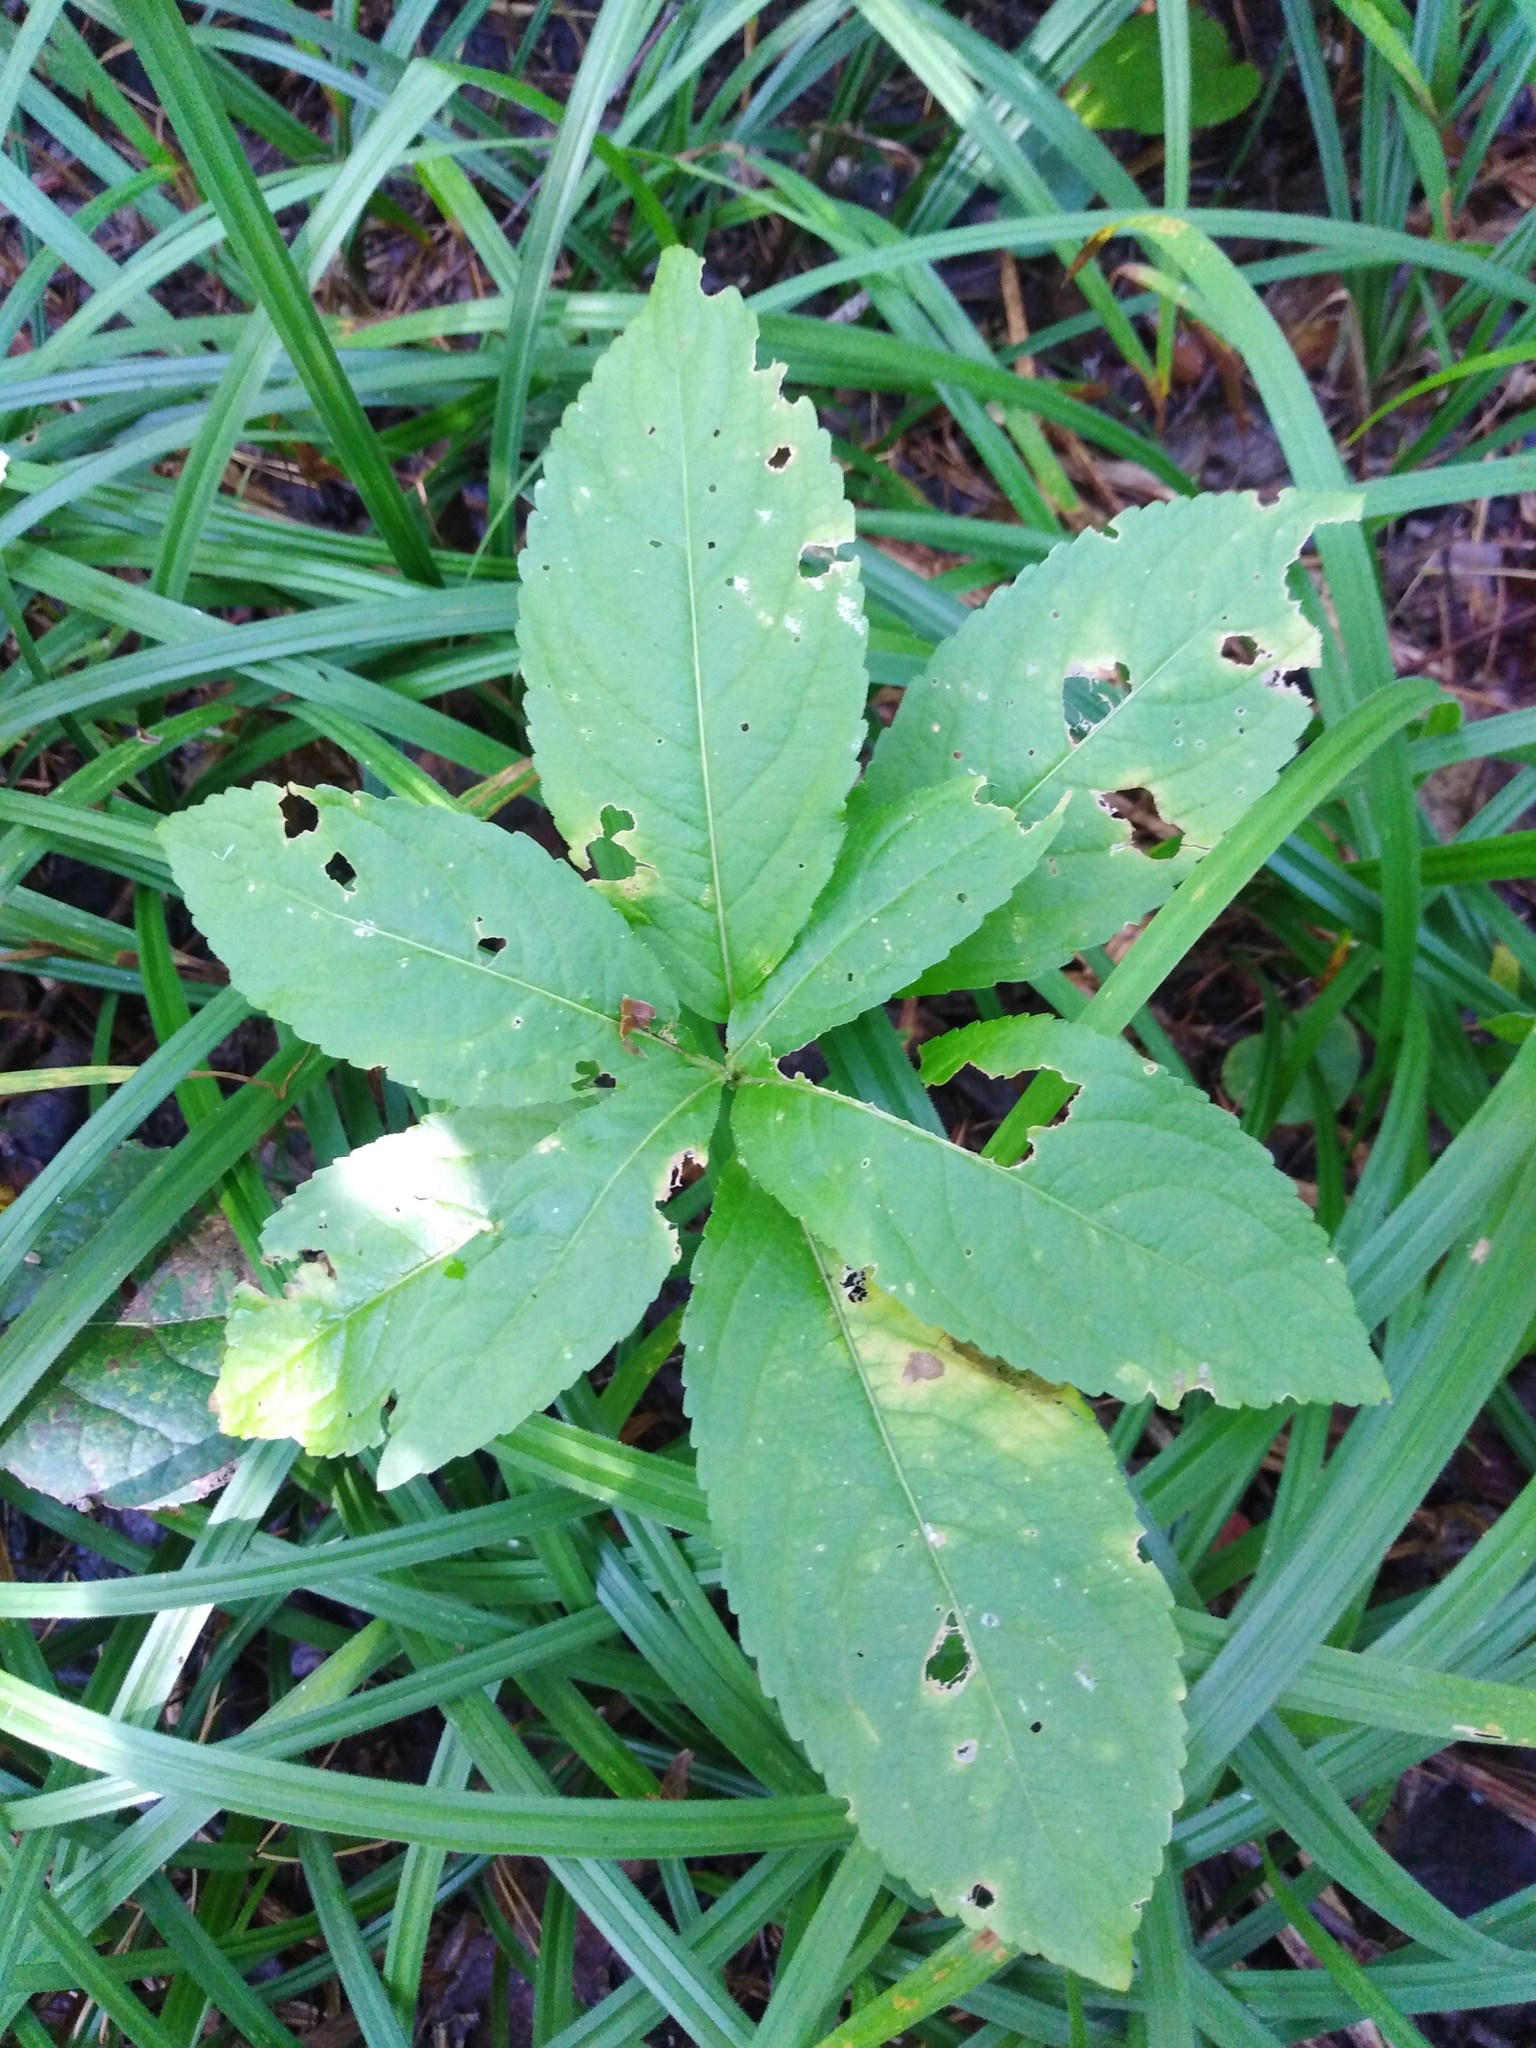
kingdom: Plantae
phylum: Tracheophyta
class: Magnoliopsida
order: Malpighiales
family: Euphorbiaceae
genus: Mercurialis
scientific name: Mercurialis perennis
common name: Dog mercury
